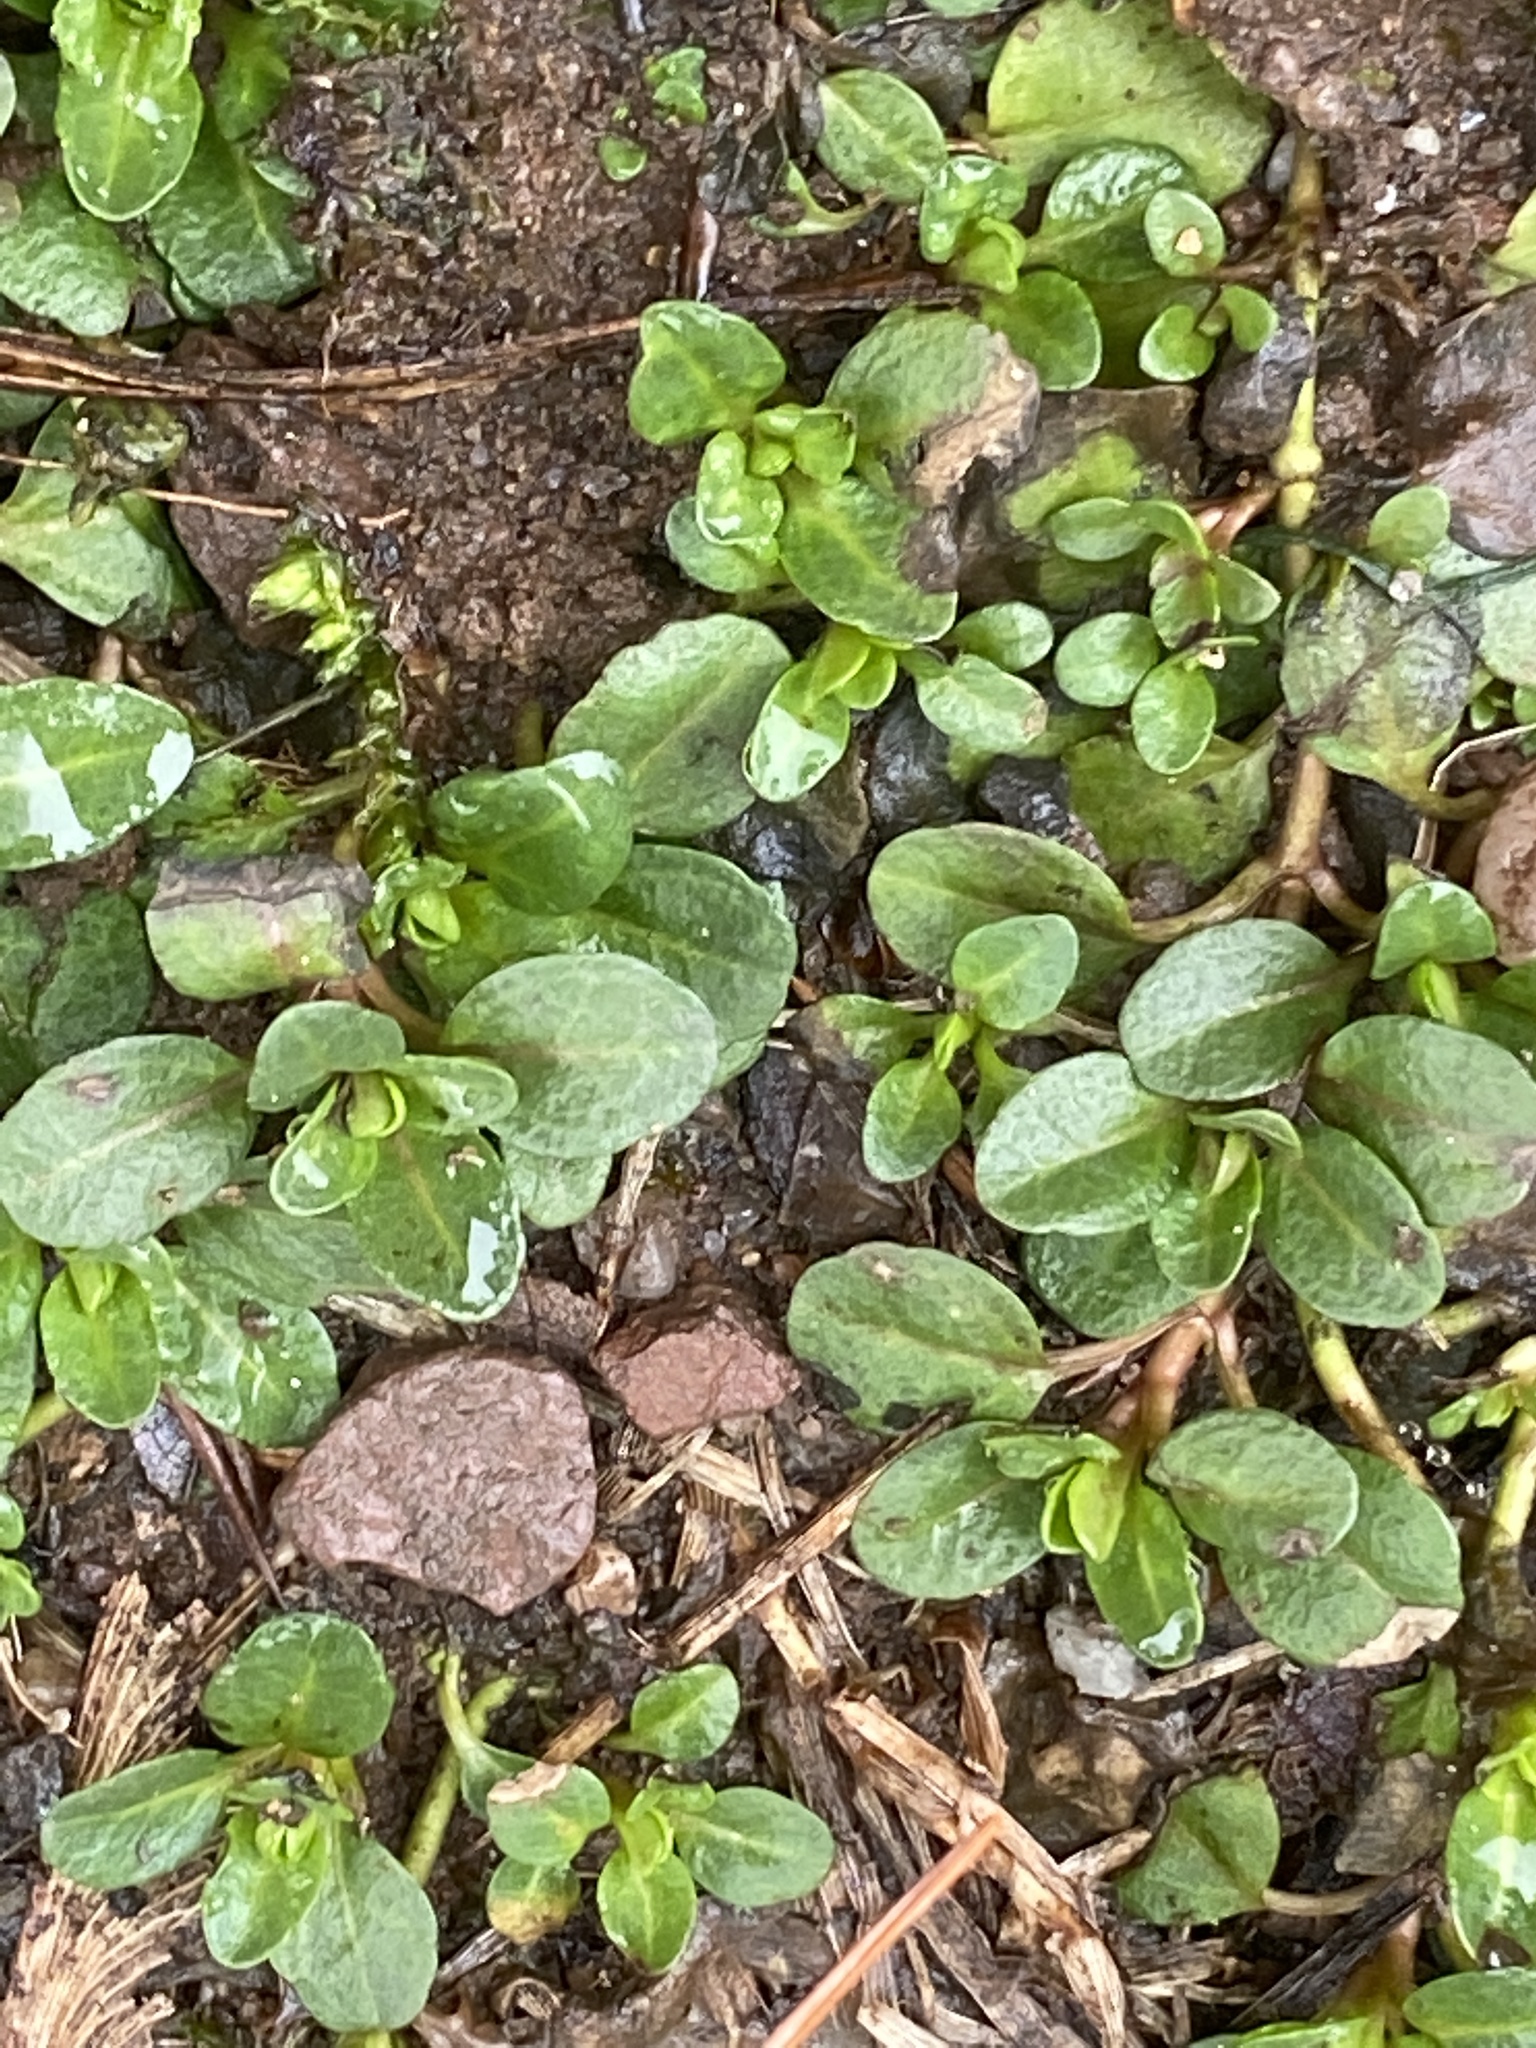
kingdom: Plantae
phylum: Tracheophyta
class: Magnoliopsida
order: Lamiales
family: Plantaginaceae
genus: Veronica
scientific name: Veronica serpyllifolia
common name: Thyme-leaved speedwell
